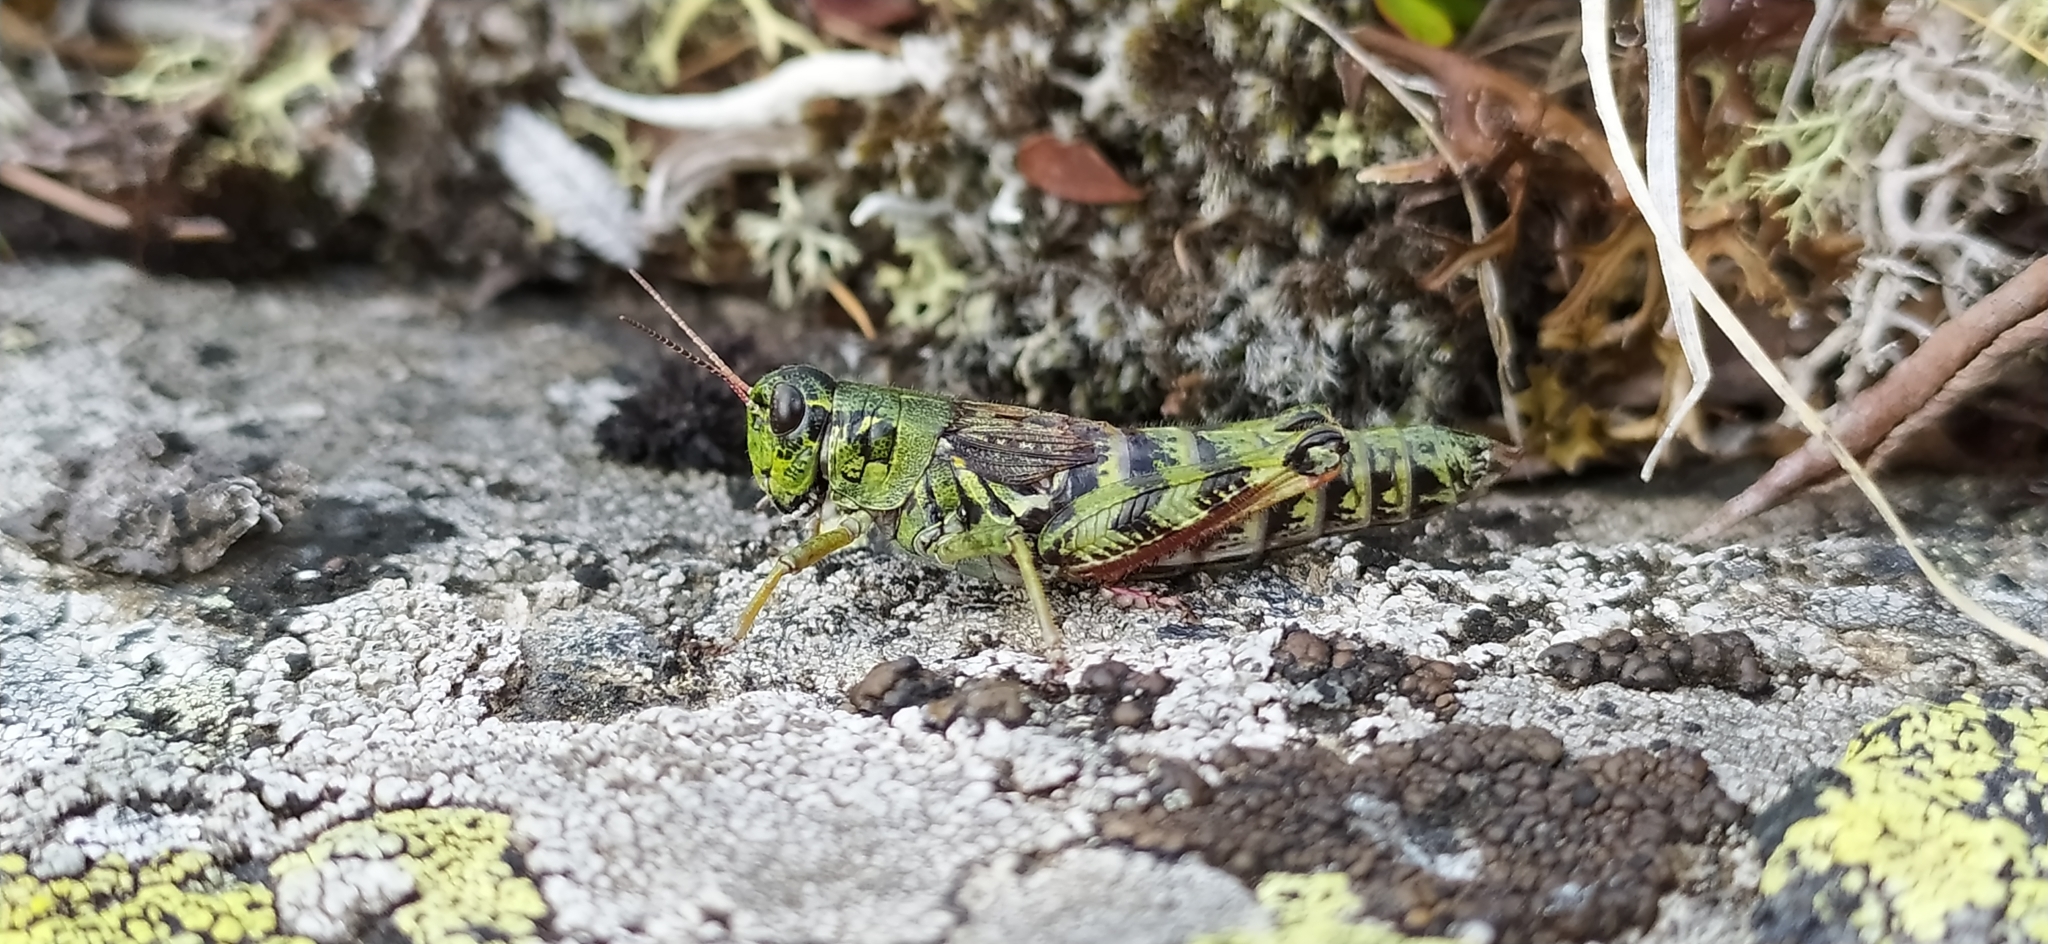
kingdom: Animalia
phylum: Arthropoda
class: Insecta
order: Orthoptera
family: Acrididae
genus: Bohemanella
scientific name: Bohemanella frigida
